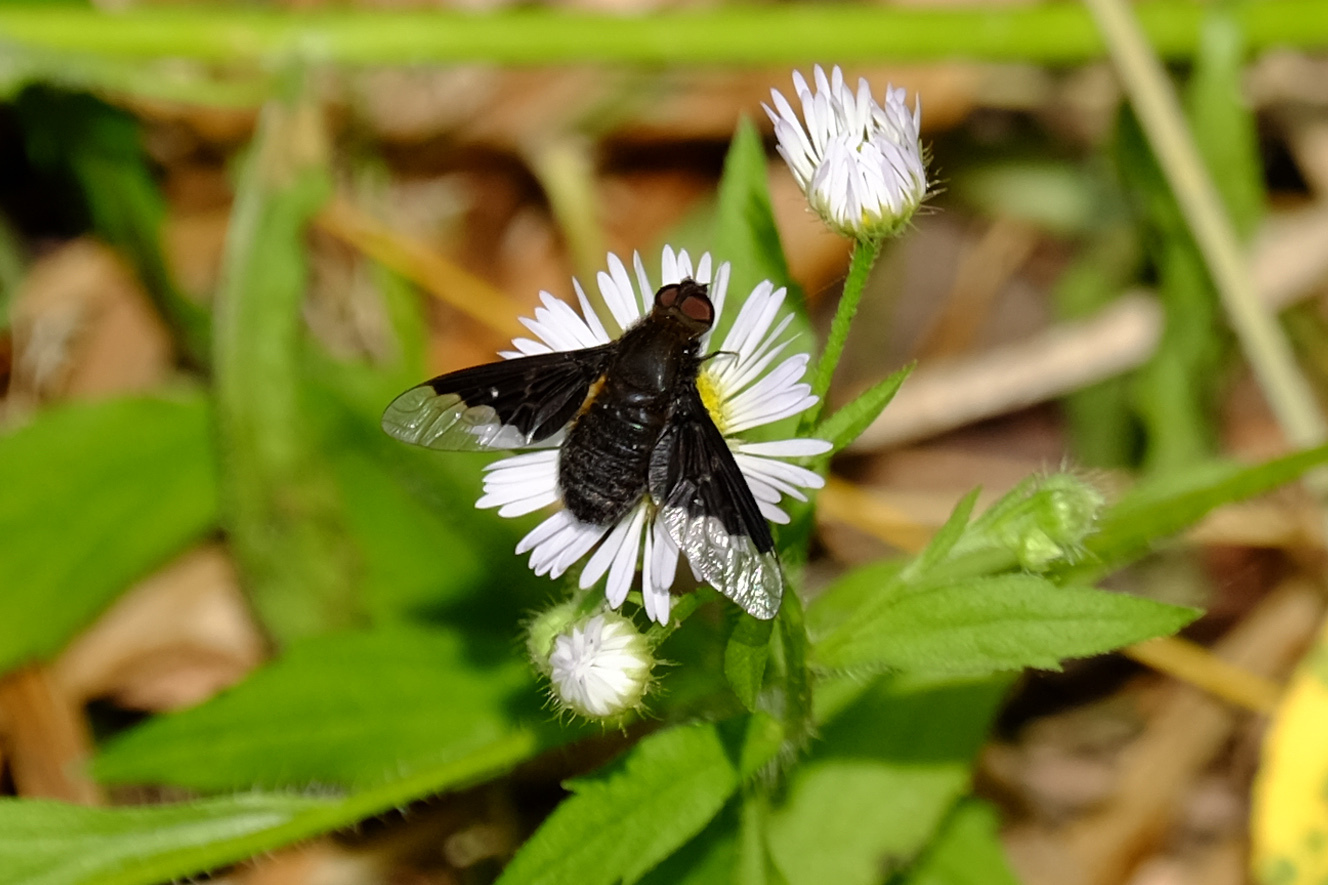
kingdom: Animalia
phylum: Arthropoda
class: Insecta
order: Diptera
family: Bombyliidae
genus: Hemipenthes
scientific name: Hemipenthes morio
